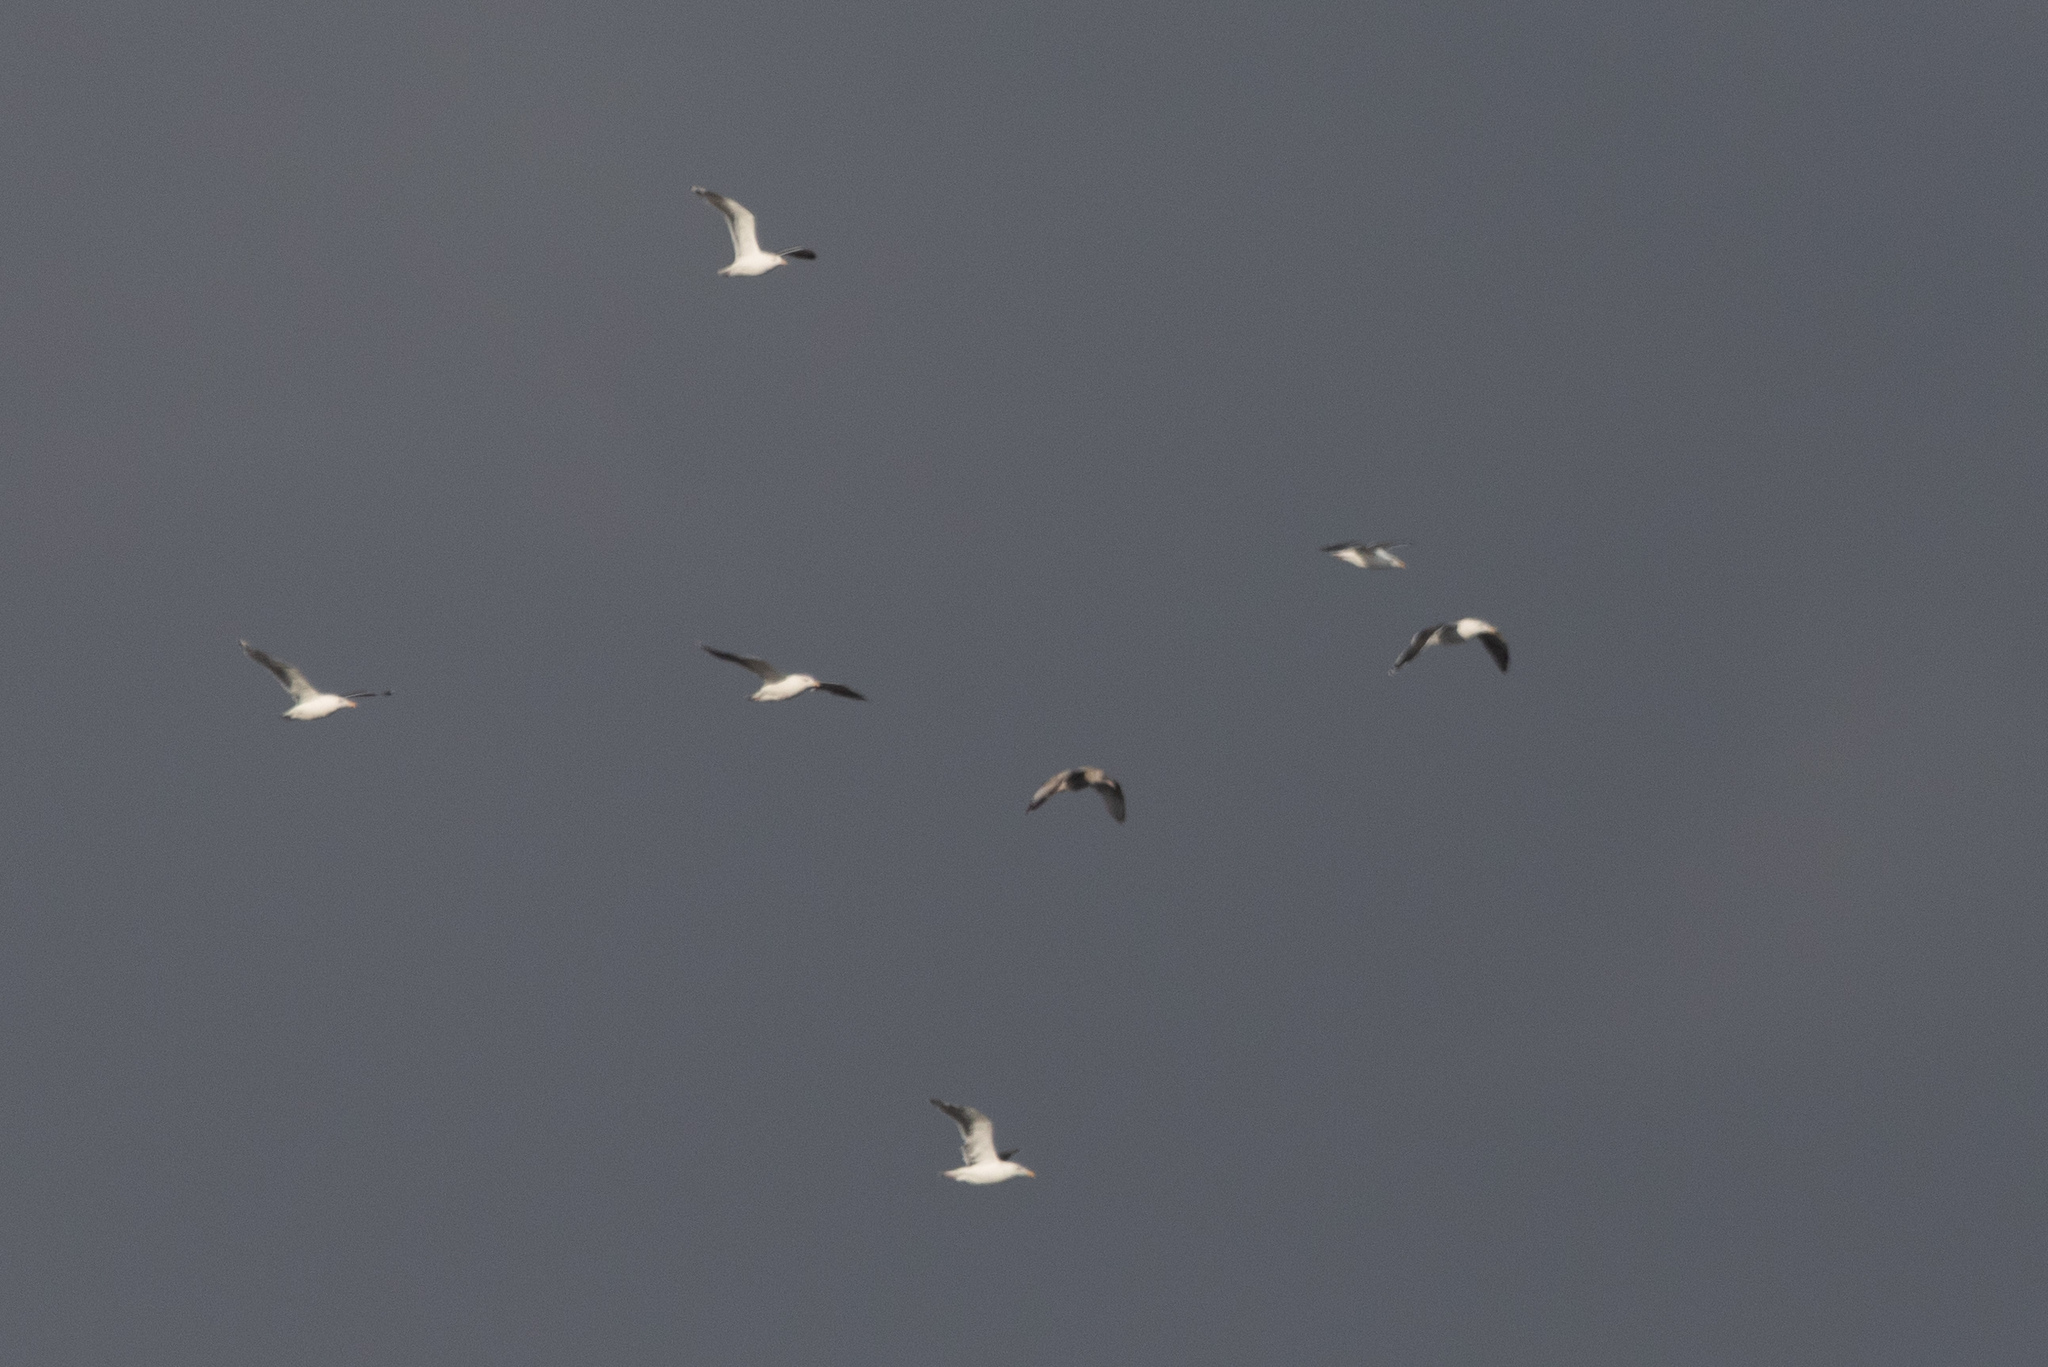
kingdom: Animalia
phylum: Chordata
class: Aves
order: Charadriiformes
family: Laridae
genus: Larus
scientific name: Larus marinus
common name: Great black-backed gull
